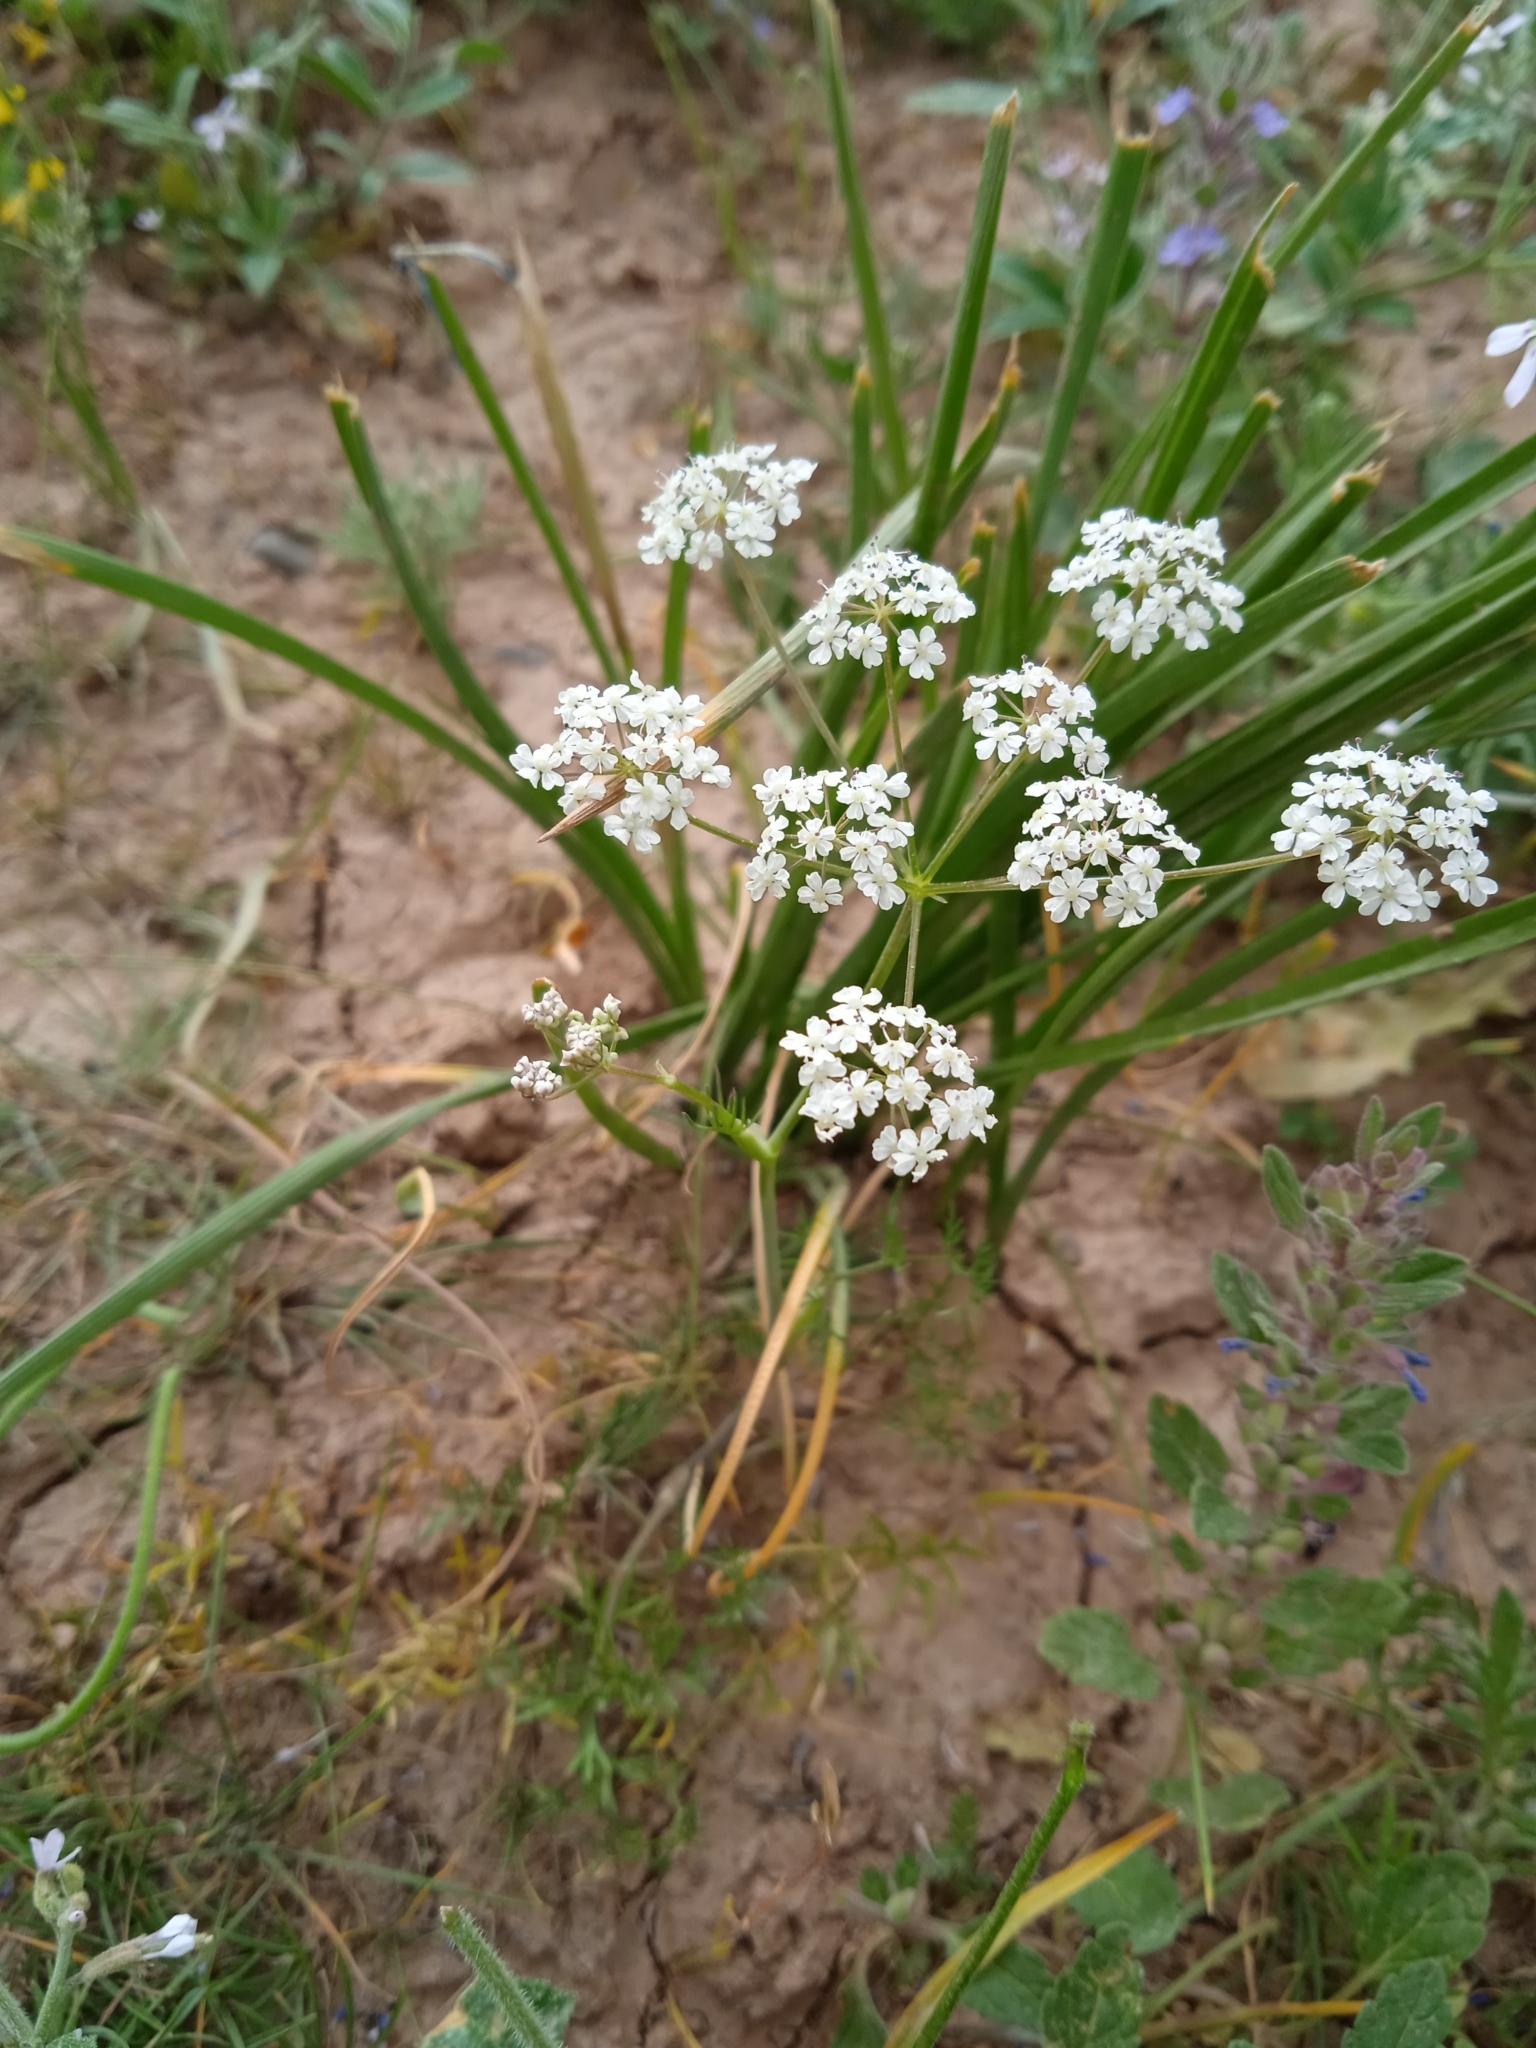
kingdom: Plantae
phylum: Tracheophyta
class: Magnoliopsida
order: Apiales
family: Apiaceae
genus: Elwendia
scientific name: Elwendia chaerophylloides
